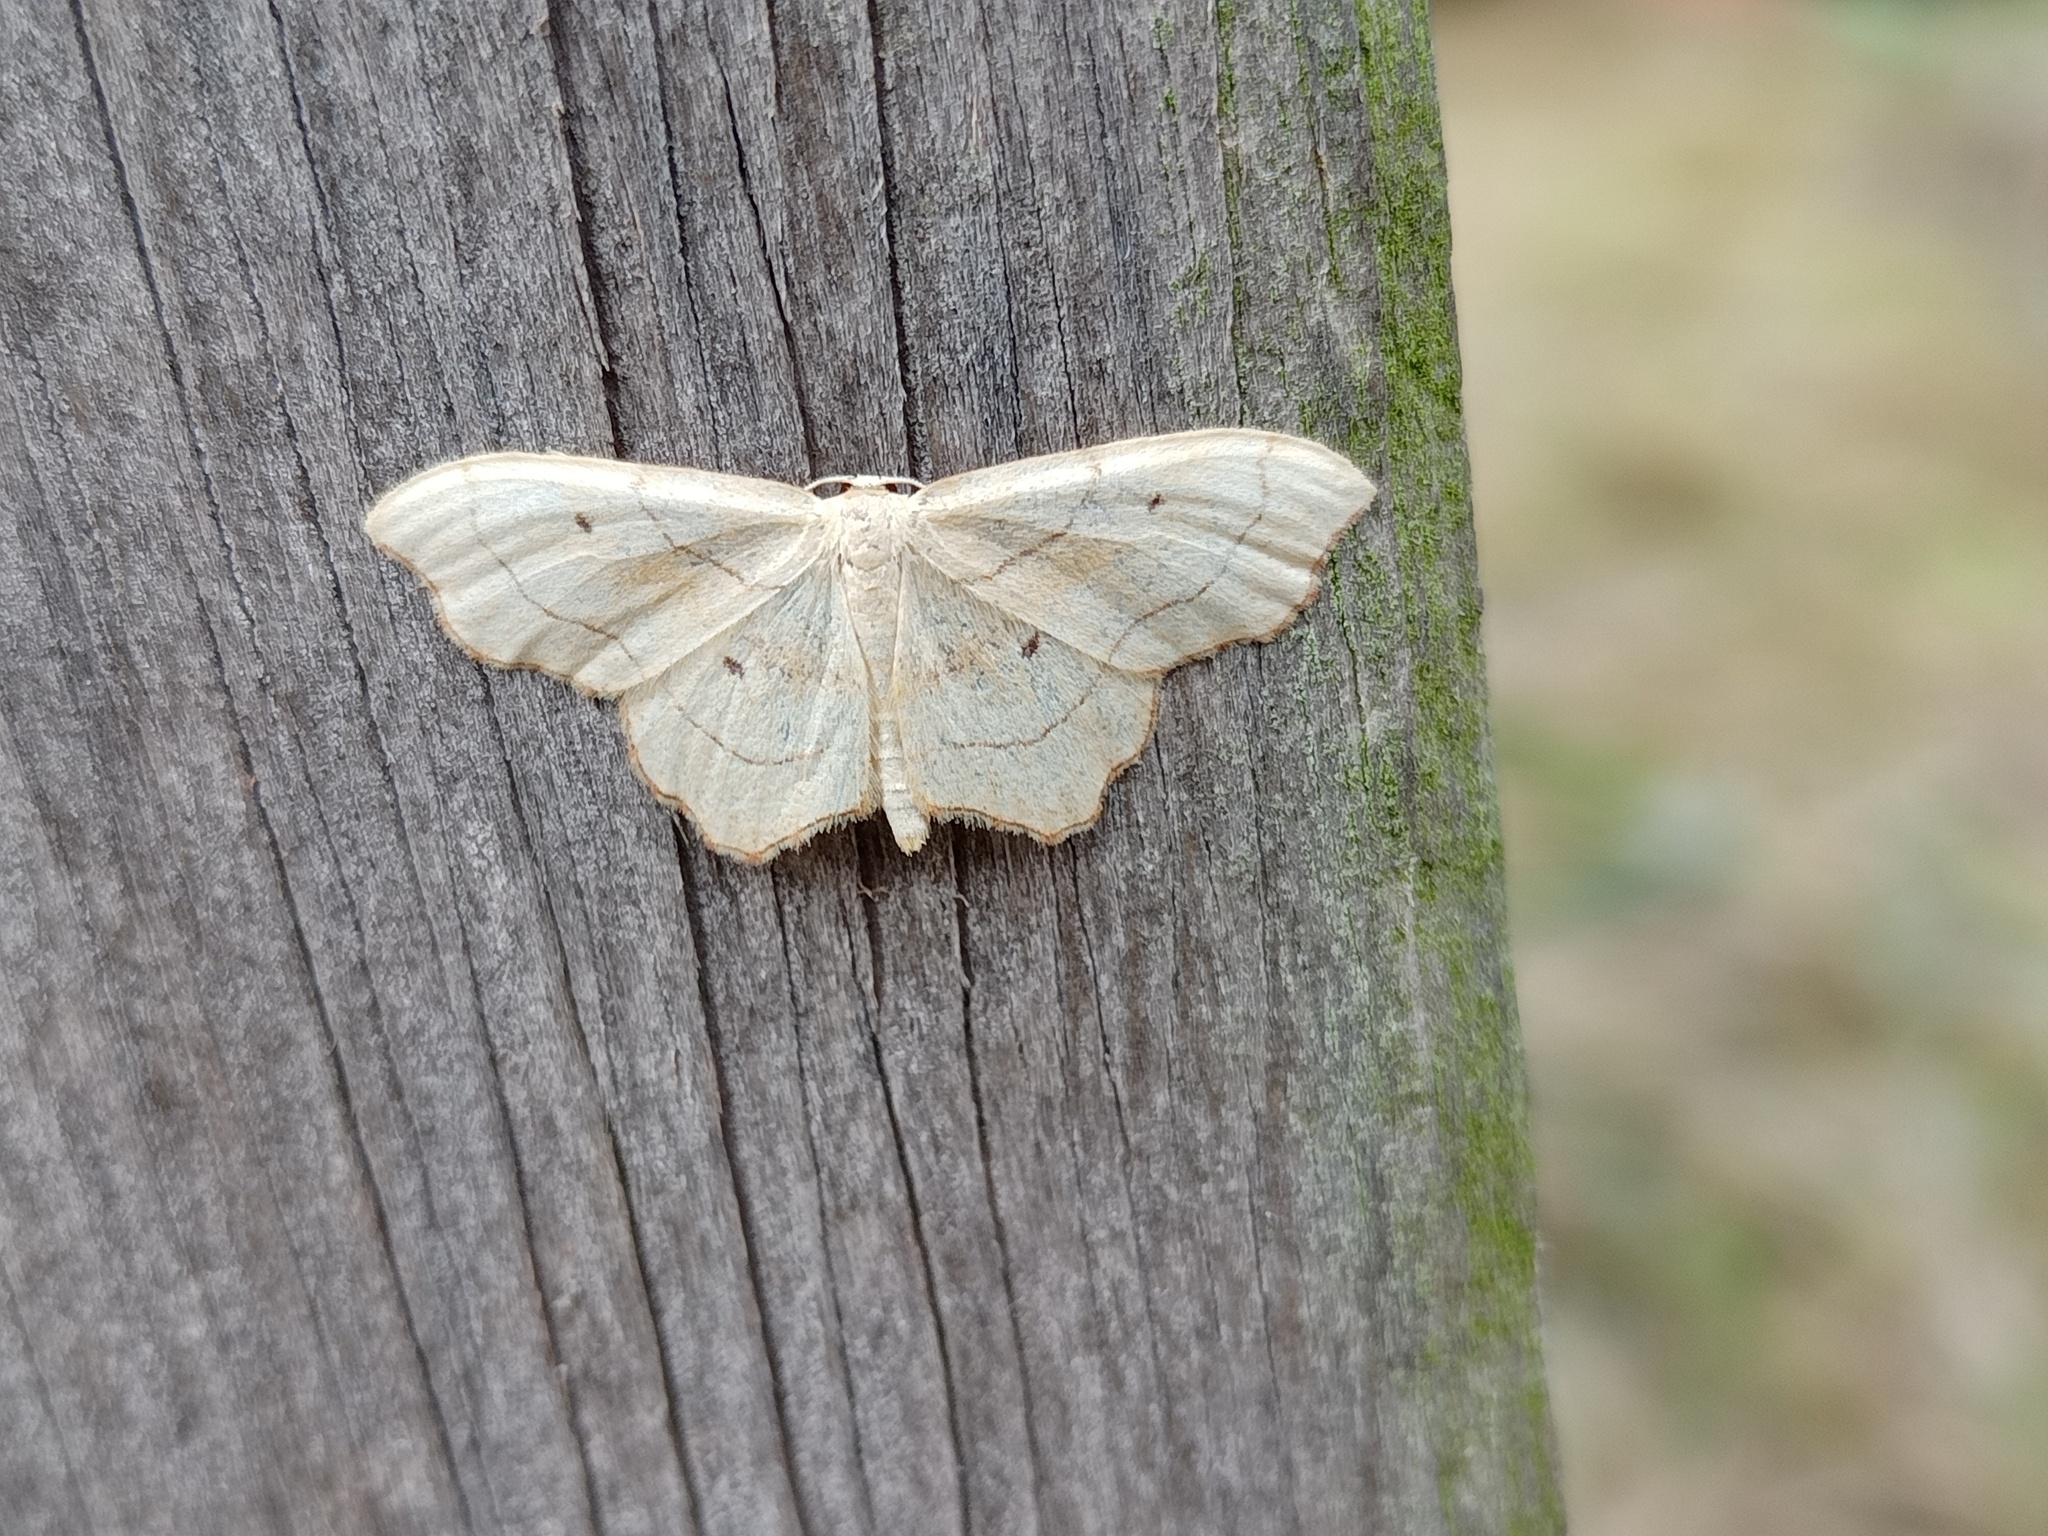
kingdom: Animalia
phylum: Arthropoda
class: Insecta
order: Lepidoptera
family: Geometridae
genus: Idaea
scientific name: Idaea emarginata
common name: Small scallop
